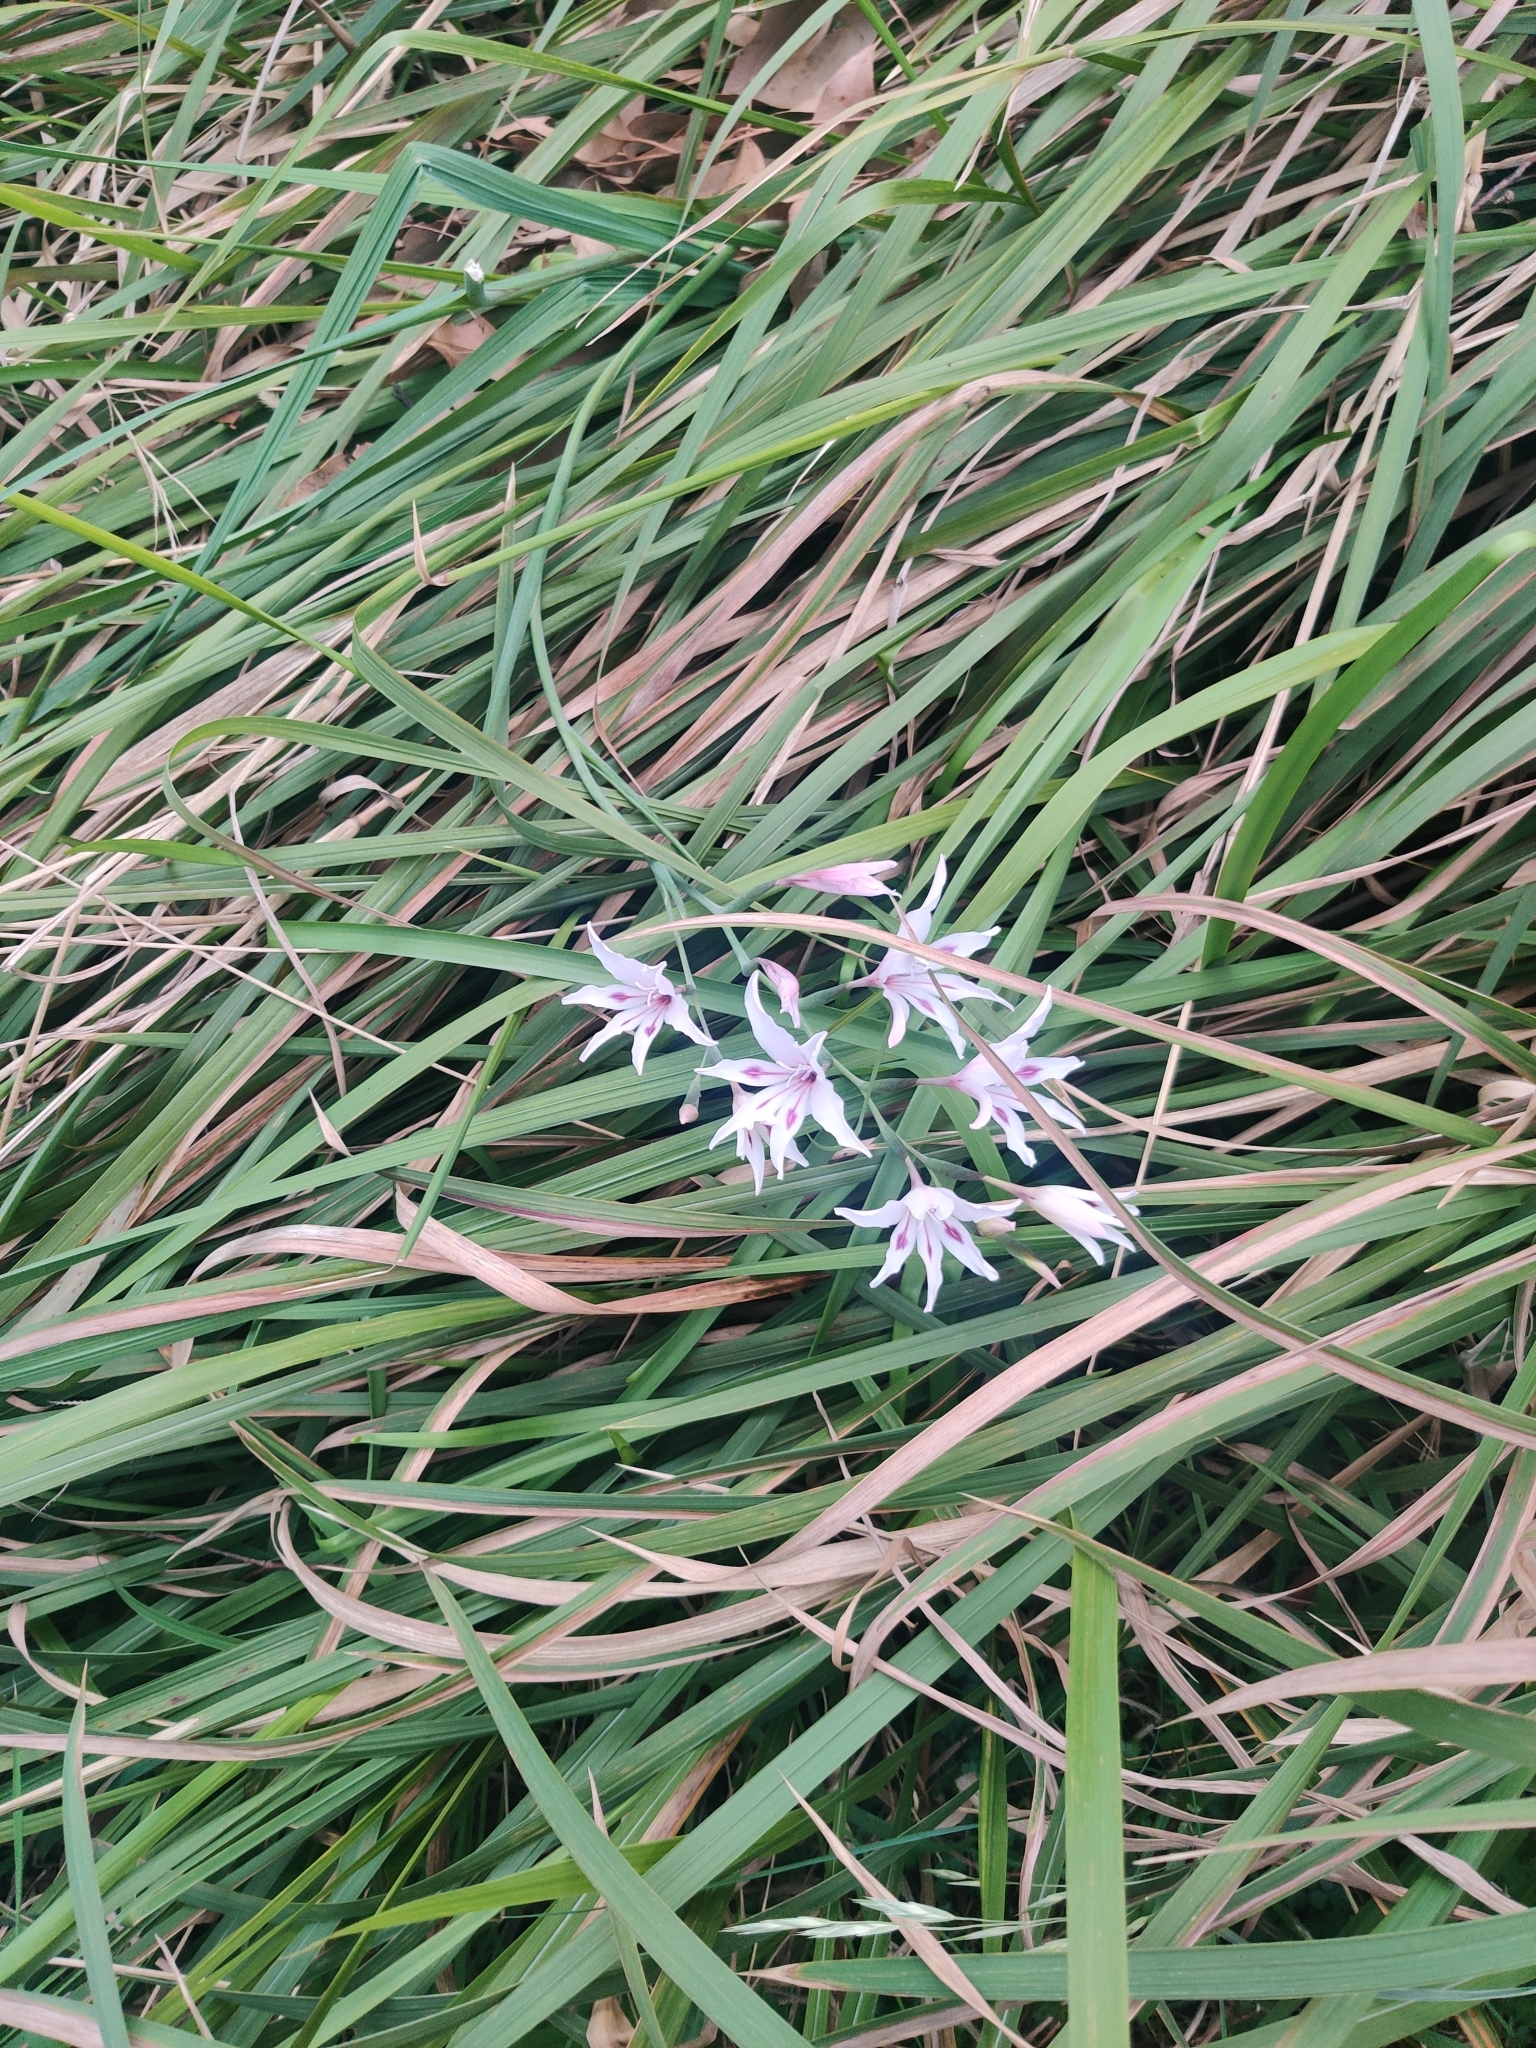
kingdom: Plantae
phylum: Tracheophyta
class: Liliopsida
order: Asparagales
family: Iridaceae
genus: Gladiolus
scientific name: Gladiolus carneus
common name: Painted-lady
